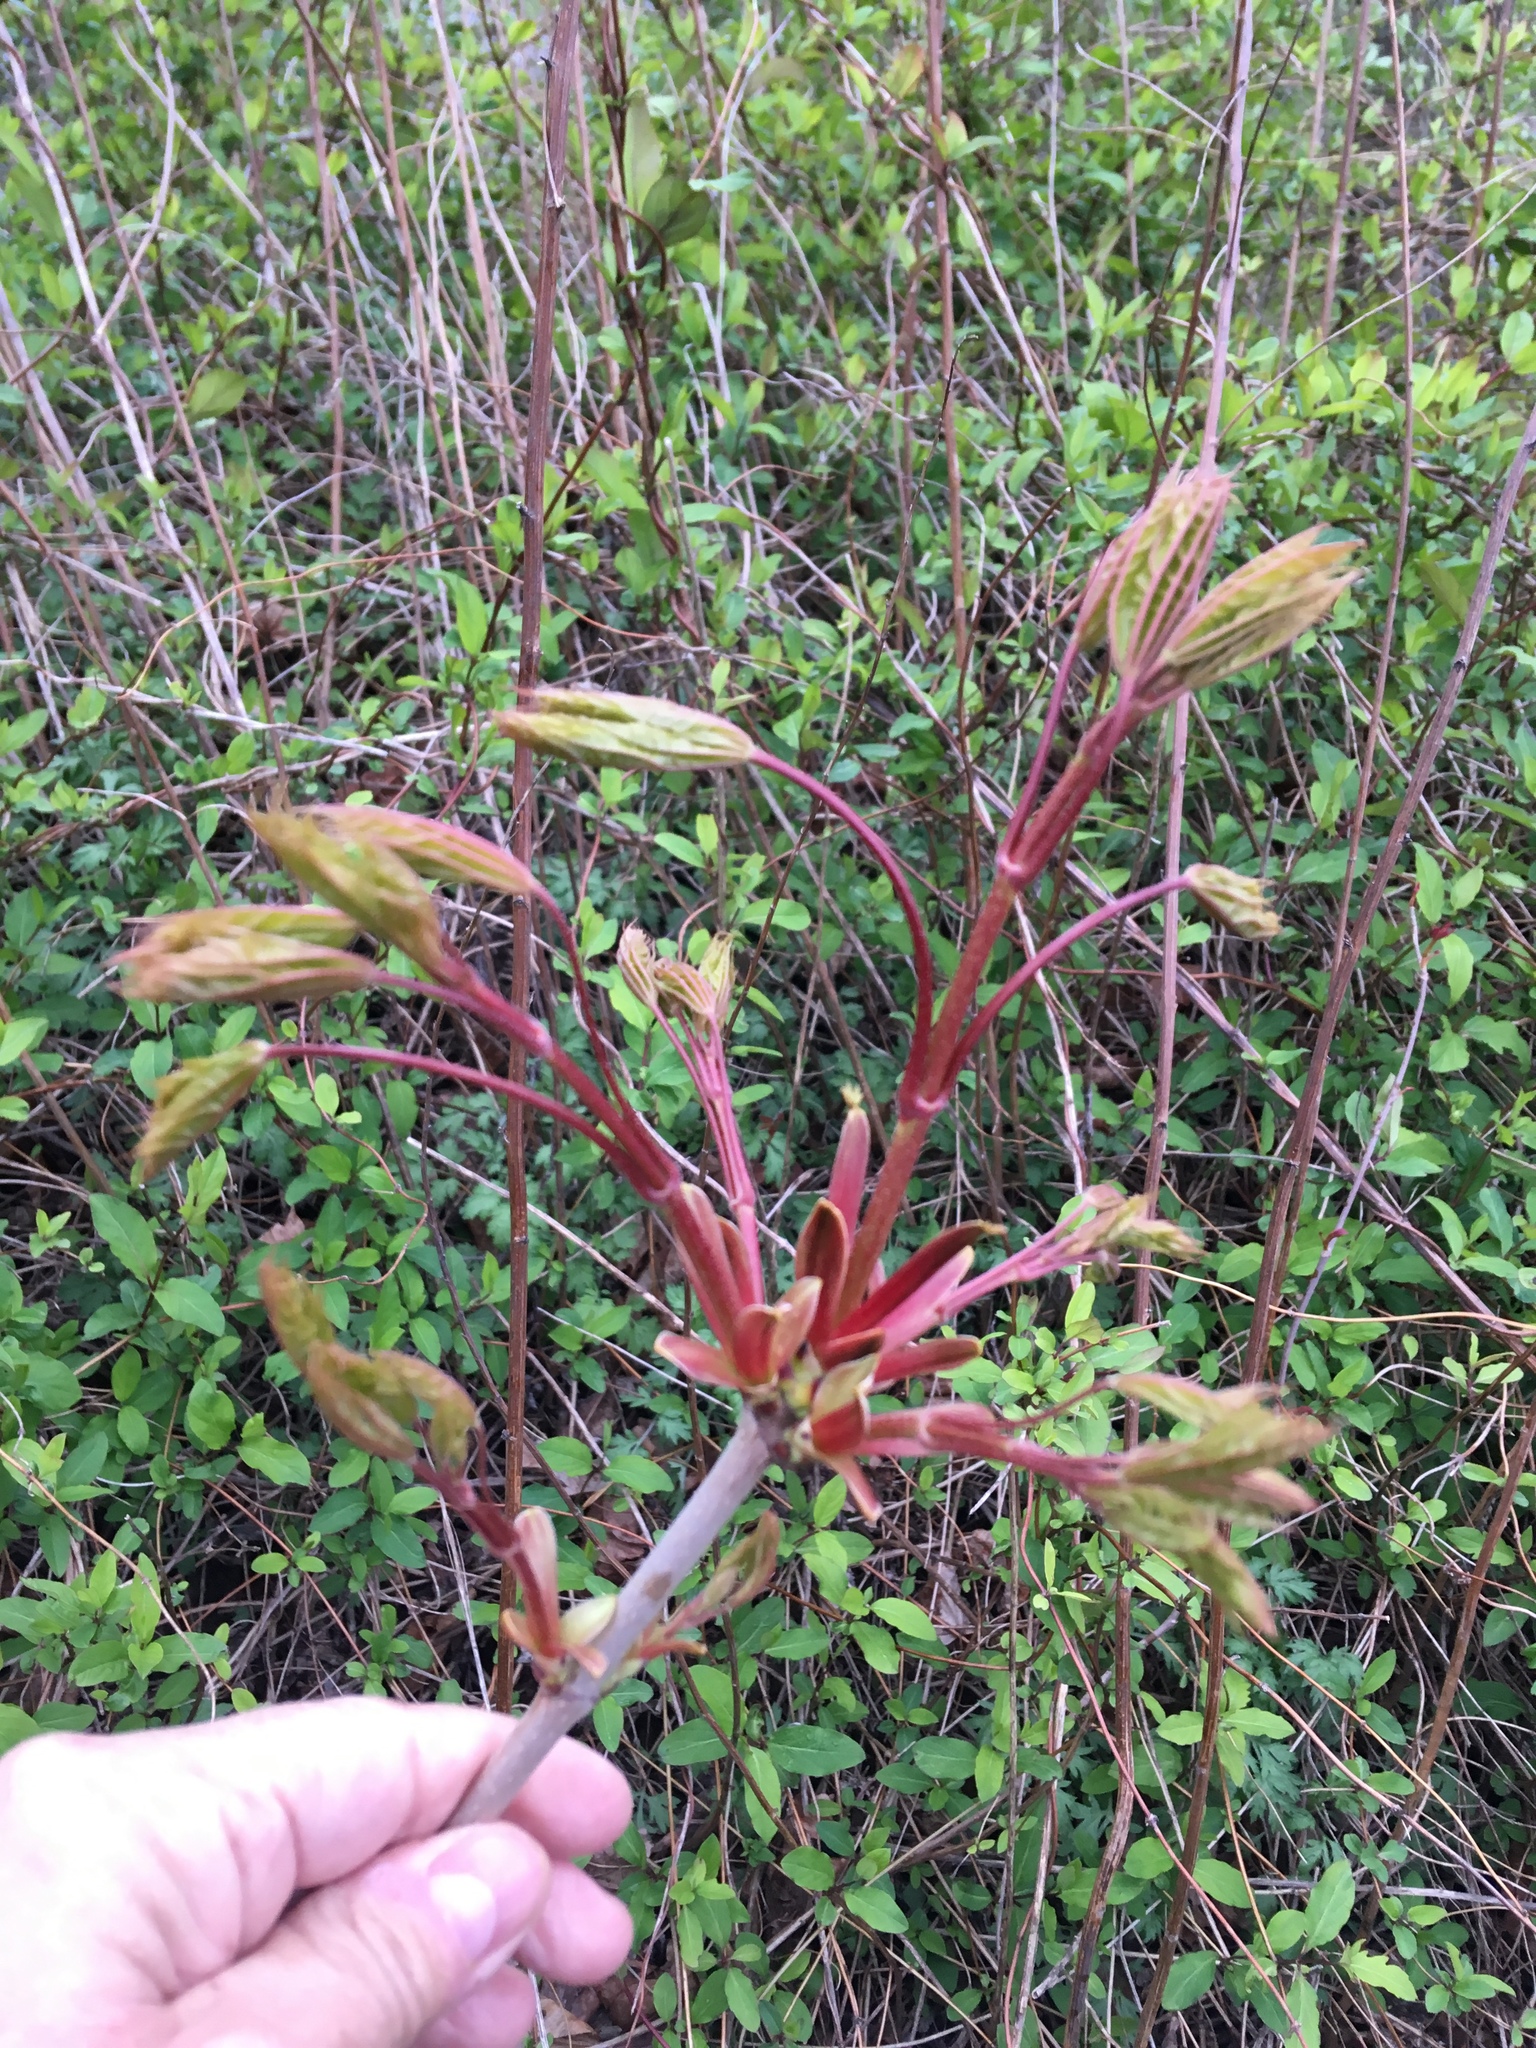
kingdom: Plantae
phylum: Tracheophyta
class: Magnoliopsida
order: Sapindales
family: Sapindaceae
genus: Acer
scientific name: Acer pseudoplatanus
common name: Sycamore
